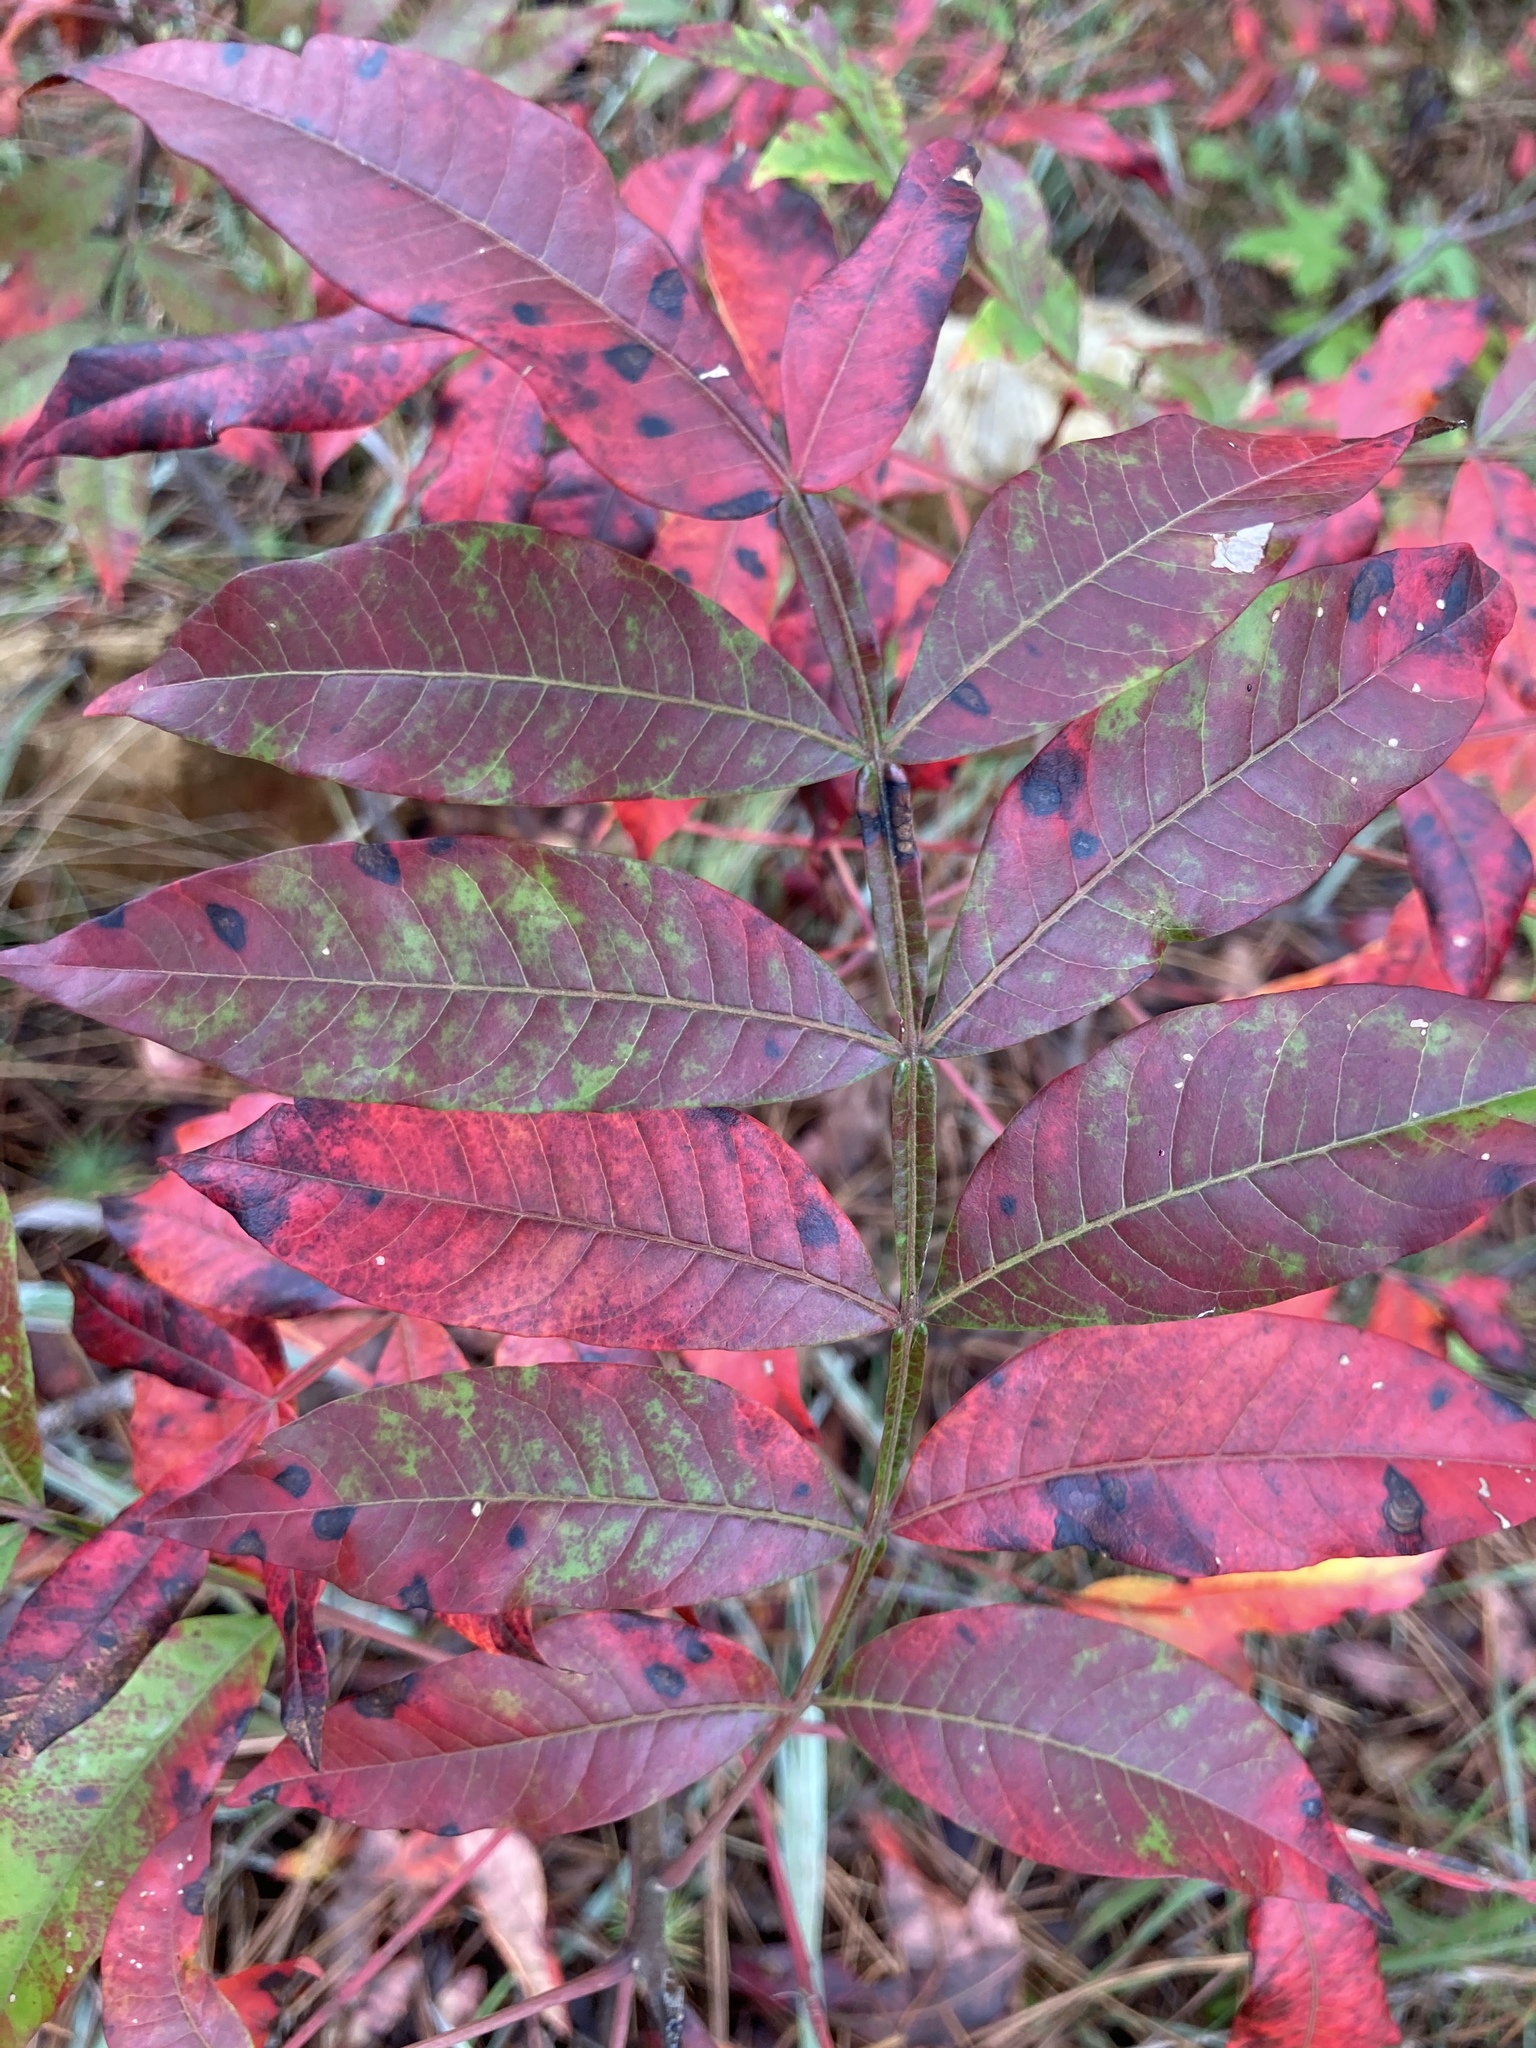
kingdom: Plantae
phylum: Tracheophyta
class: Magnoliopsida
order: Sapindales
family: Anacardiaceae
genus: Rhus
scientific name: Rhus copallina
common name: Shining sumac
